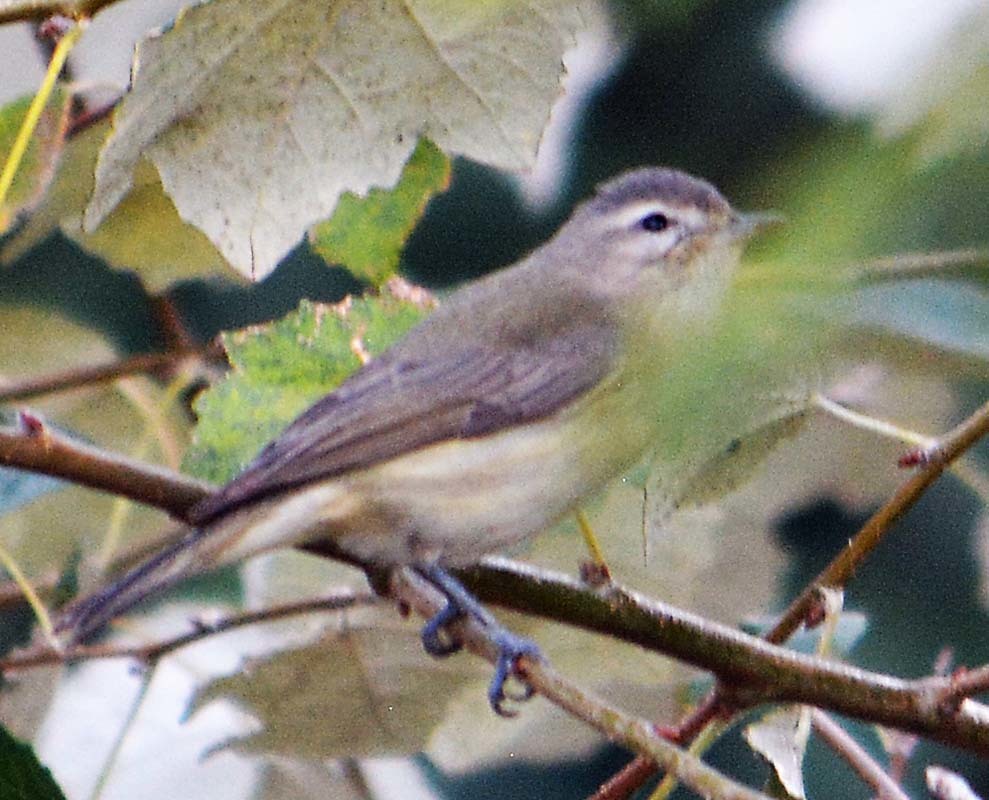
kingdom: Animalia
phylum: Chordata
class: Aves
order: Passeriformes
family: Vireonidae
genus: Vireo
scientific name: Vireo gilvus
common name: Warbling vireo
